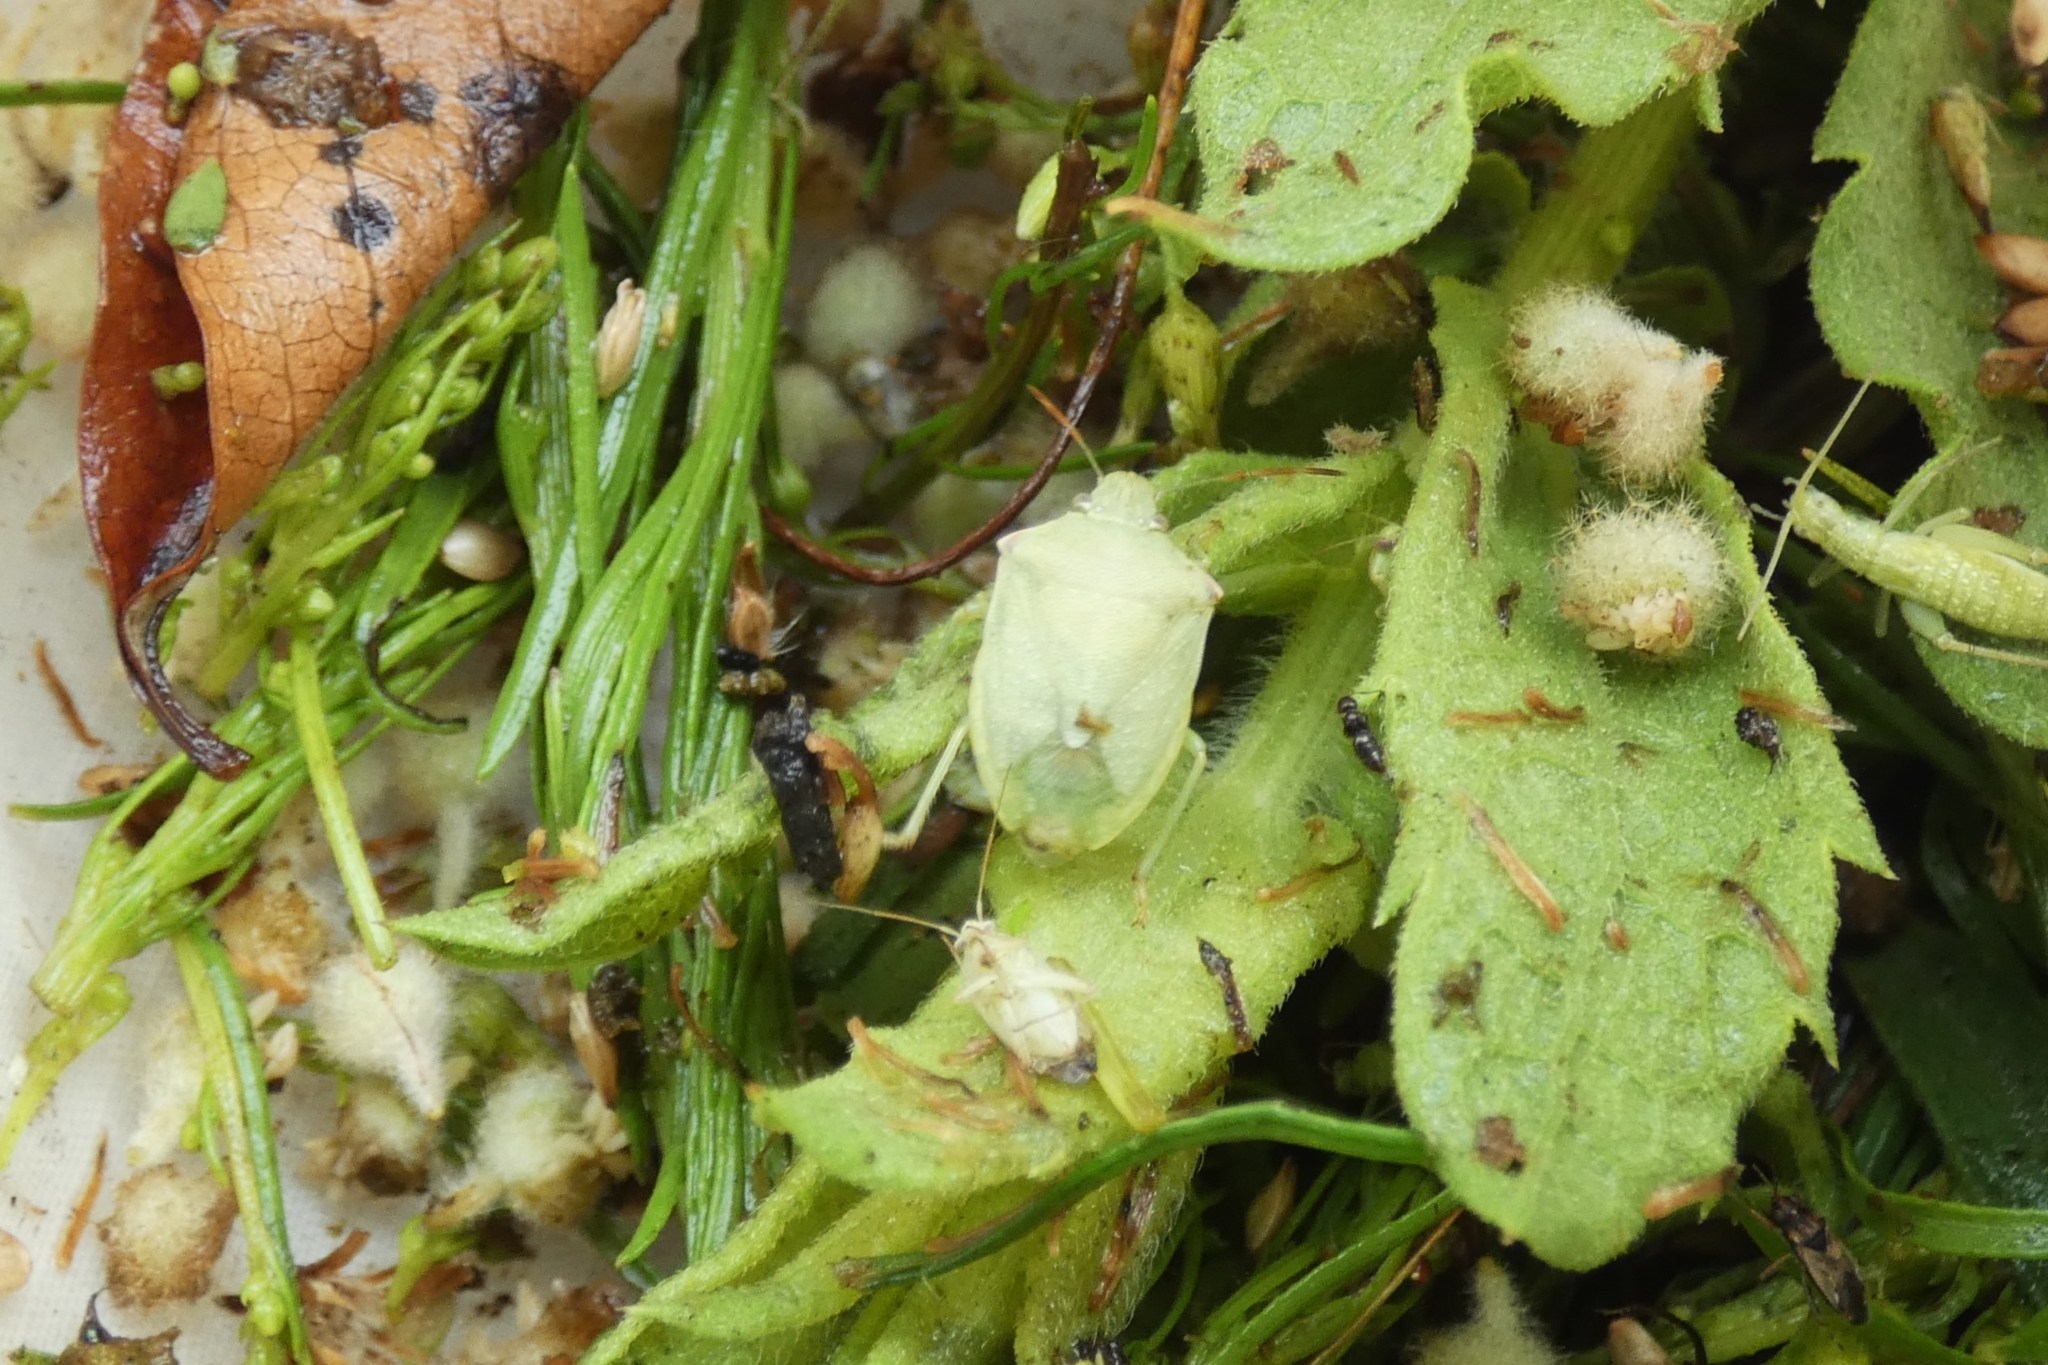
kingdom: Animalia
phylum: Arthropoda
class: Insecta
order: Hemiptera
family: Pentatomidae
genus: Thyanta
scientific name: Thyanta custator
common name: Stink bug
